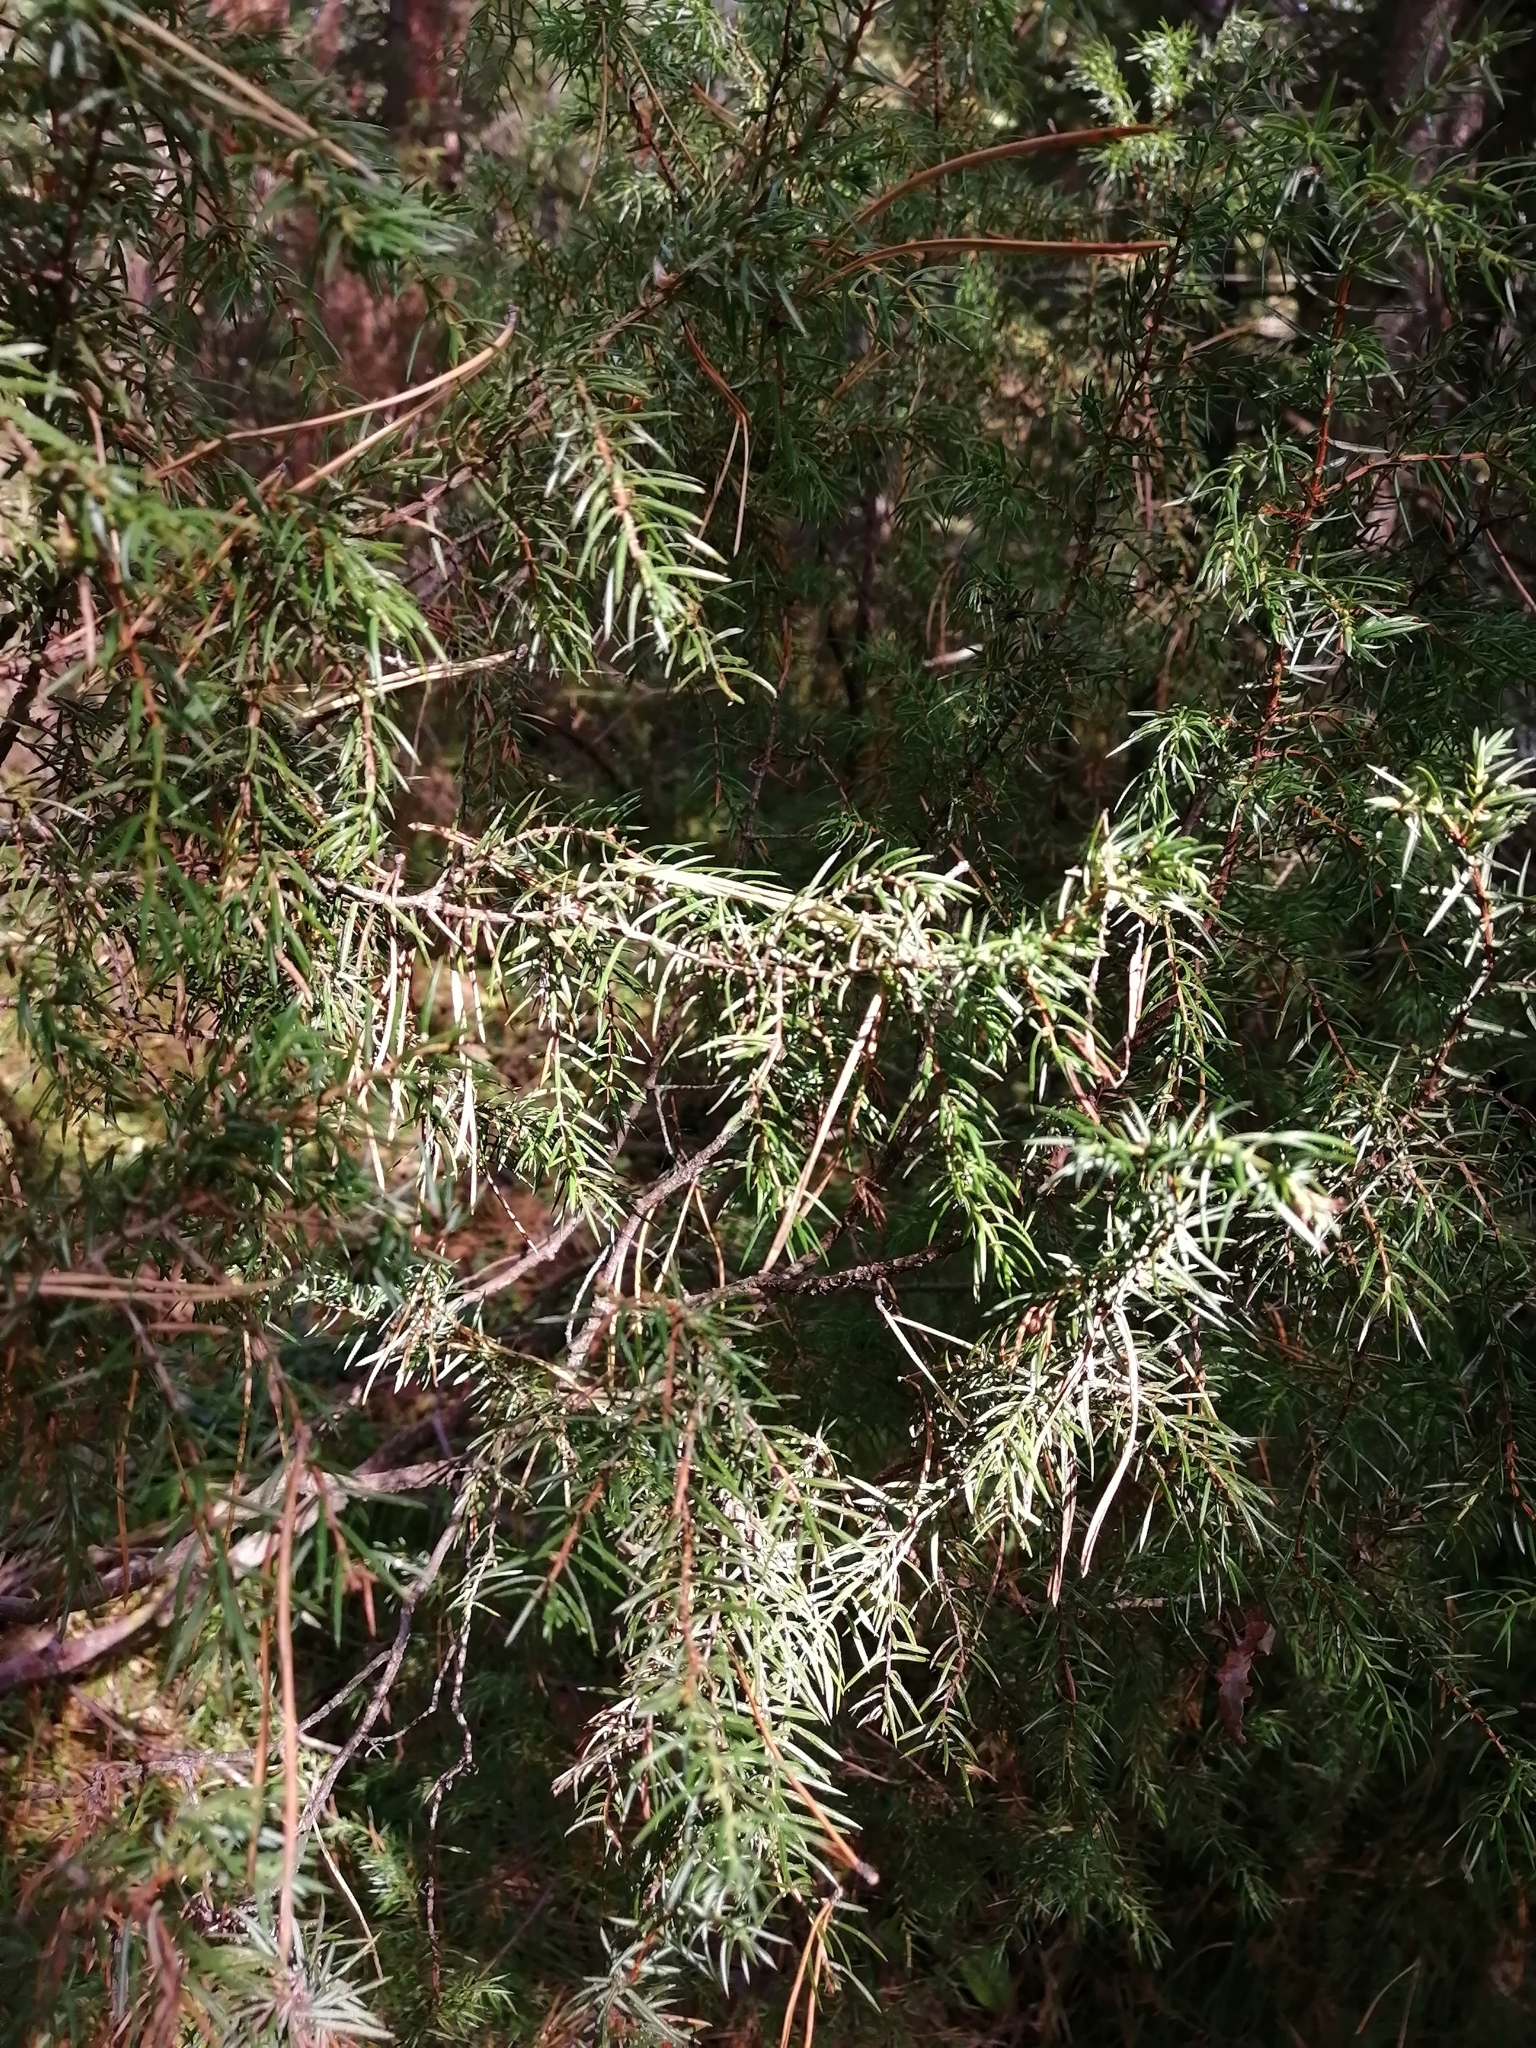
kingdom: Plantae
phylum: Tracheophyta
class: Pinopsida
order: Pinales
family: Cupressaceae
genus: Juniperus
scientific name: Juniperus communis
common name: Common juniper
